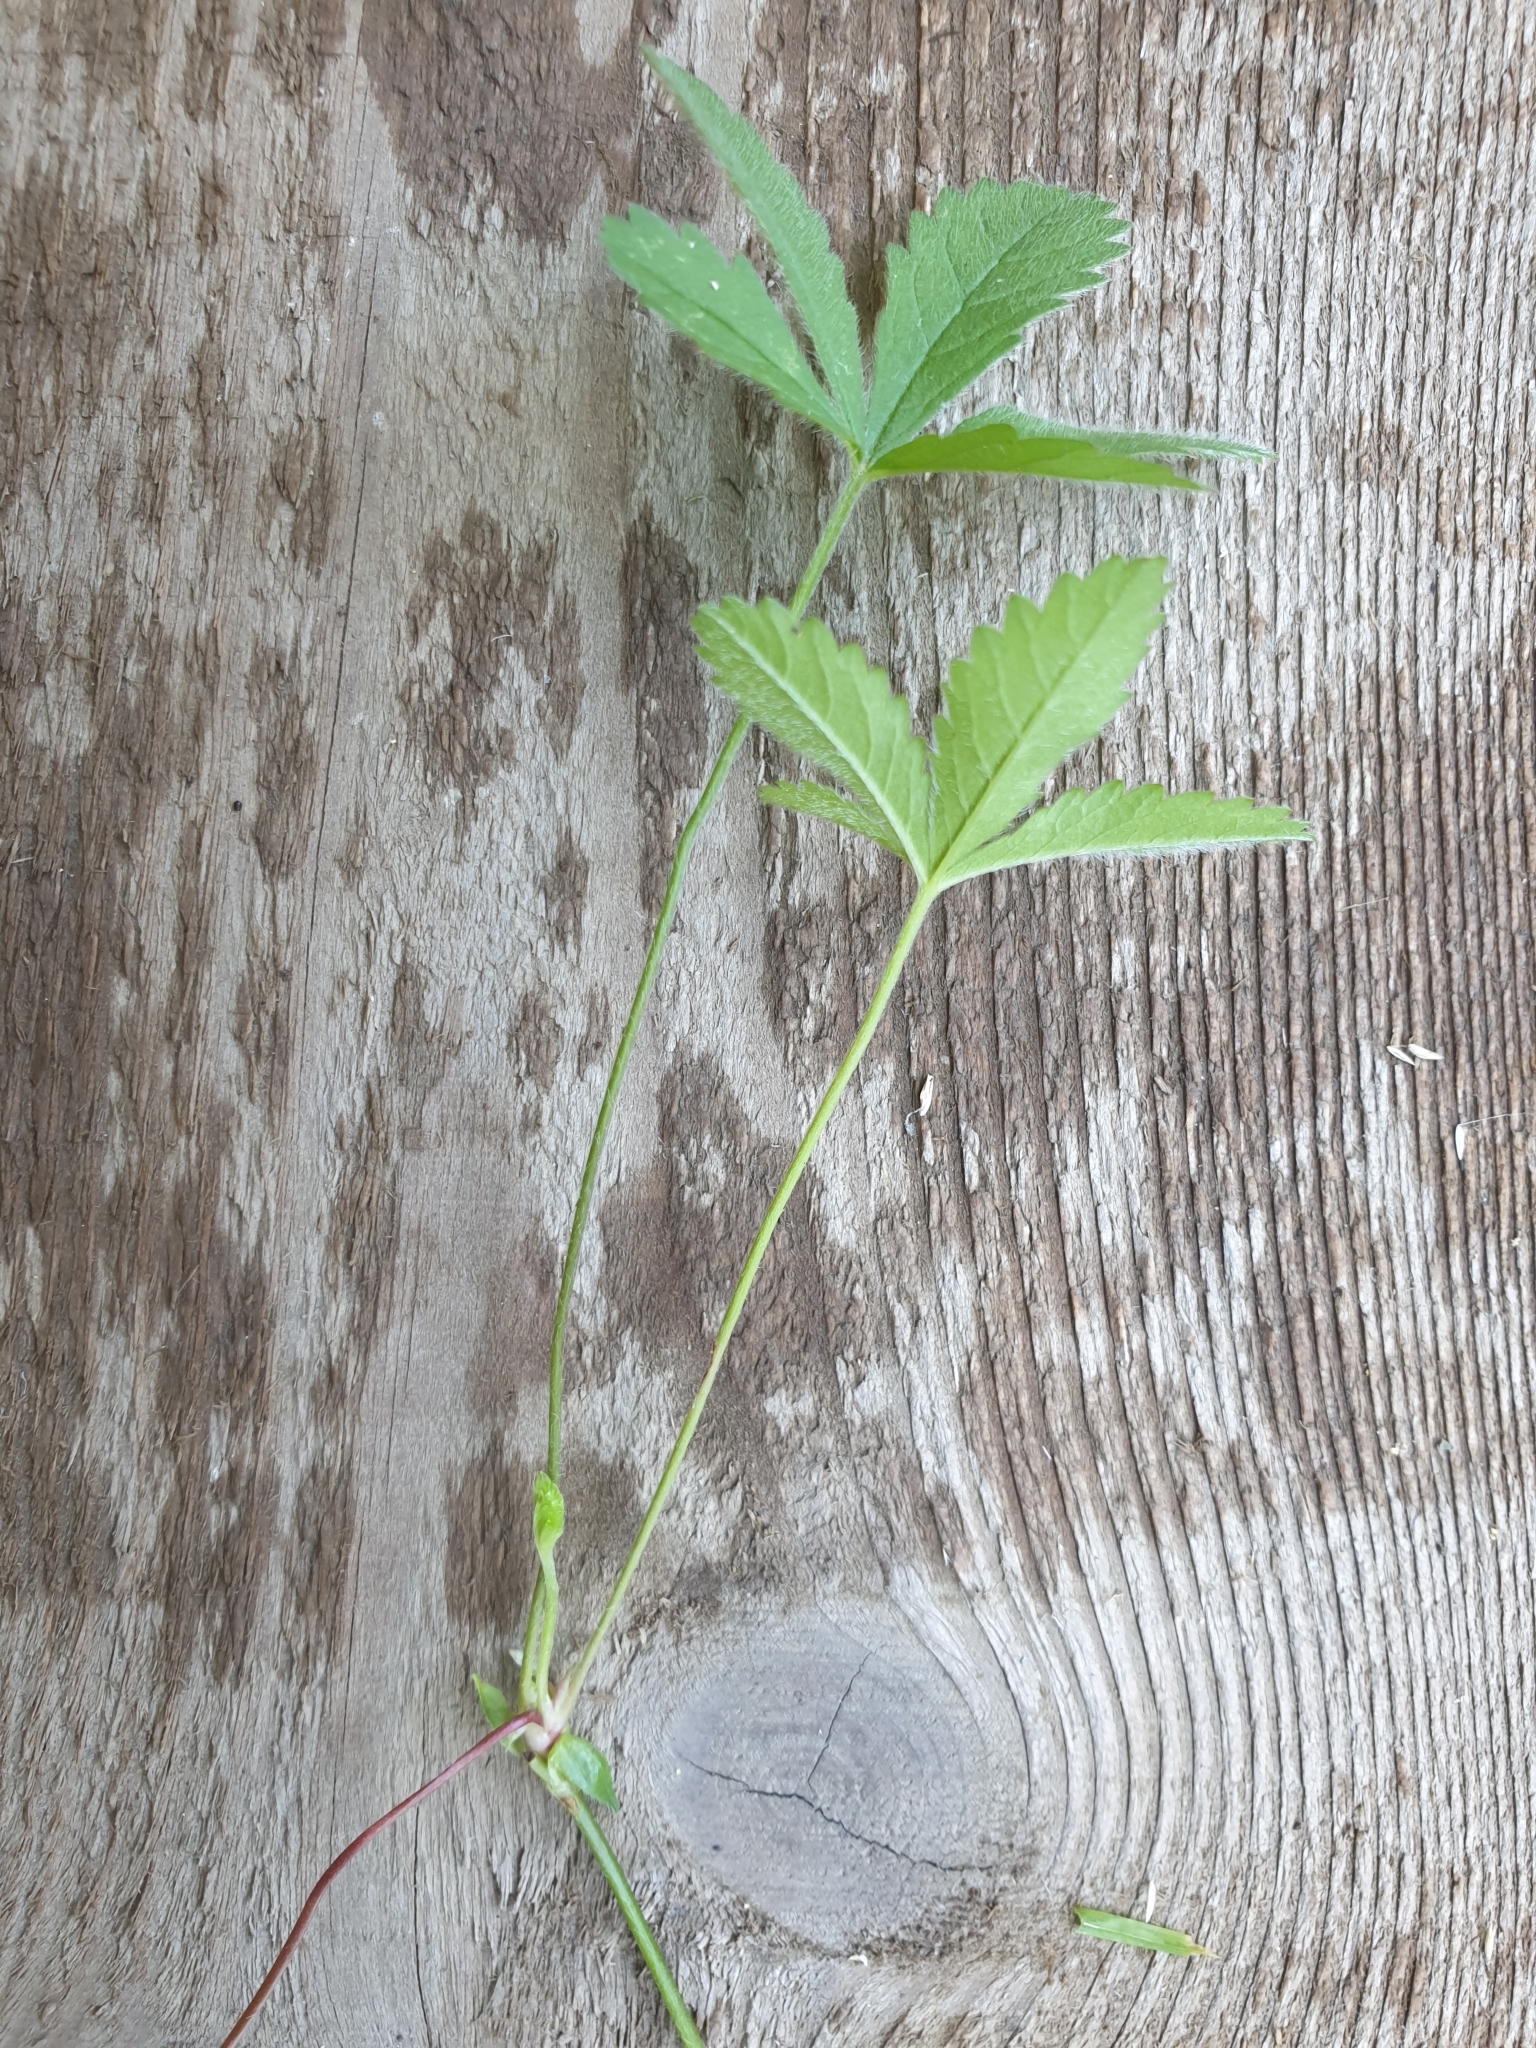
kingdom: Plantae
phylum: Tracheophyta
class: Magnoliopsida
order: Rosales
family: Rosaceae
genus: Potentilla
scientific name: Potentilla reptans
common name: Creeping cinquefoil
